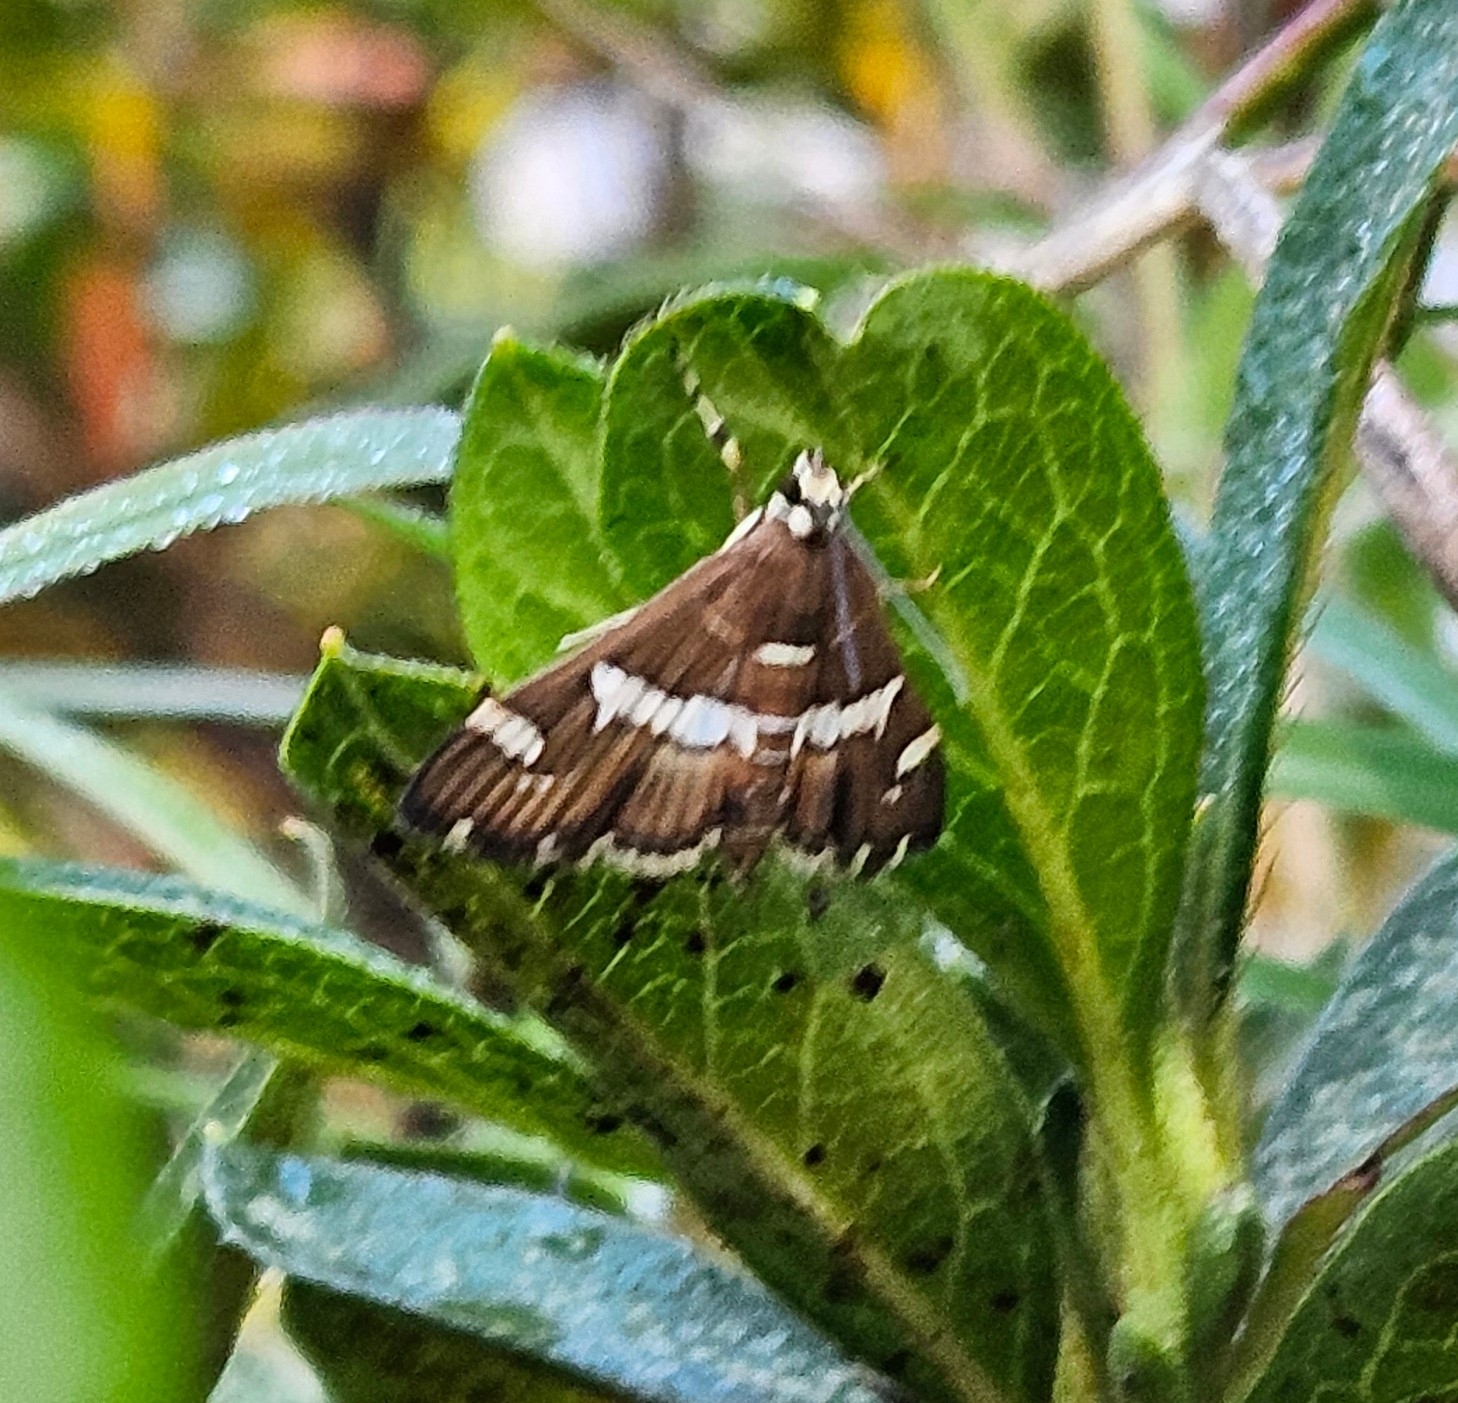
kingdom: Animalia
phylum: Arthropoda
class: Insecta
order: Lepidoptera
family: Crambidae
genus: Spoladea
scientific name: Spoladea recurvalis
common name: Beet webworm moth
